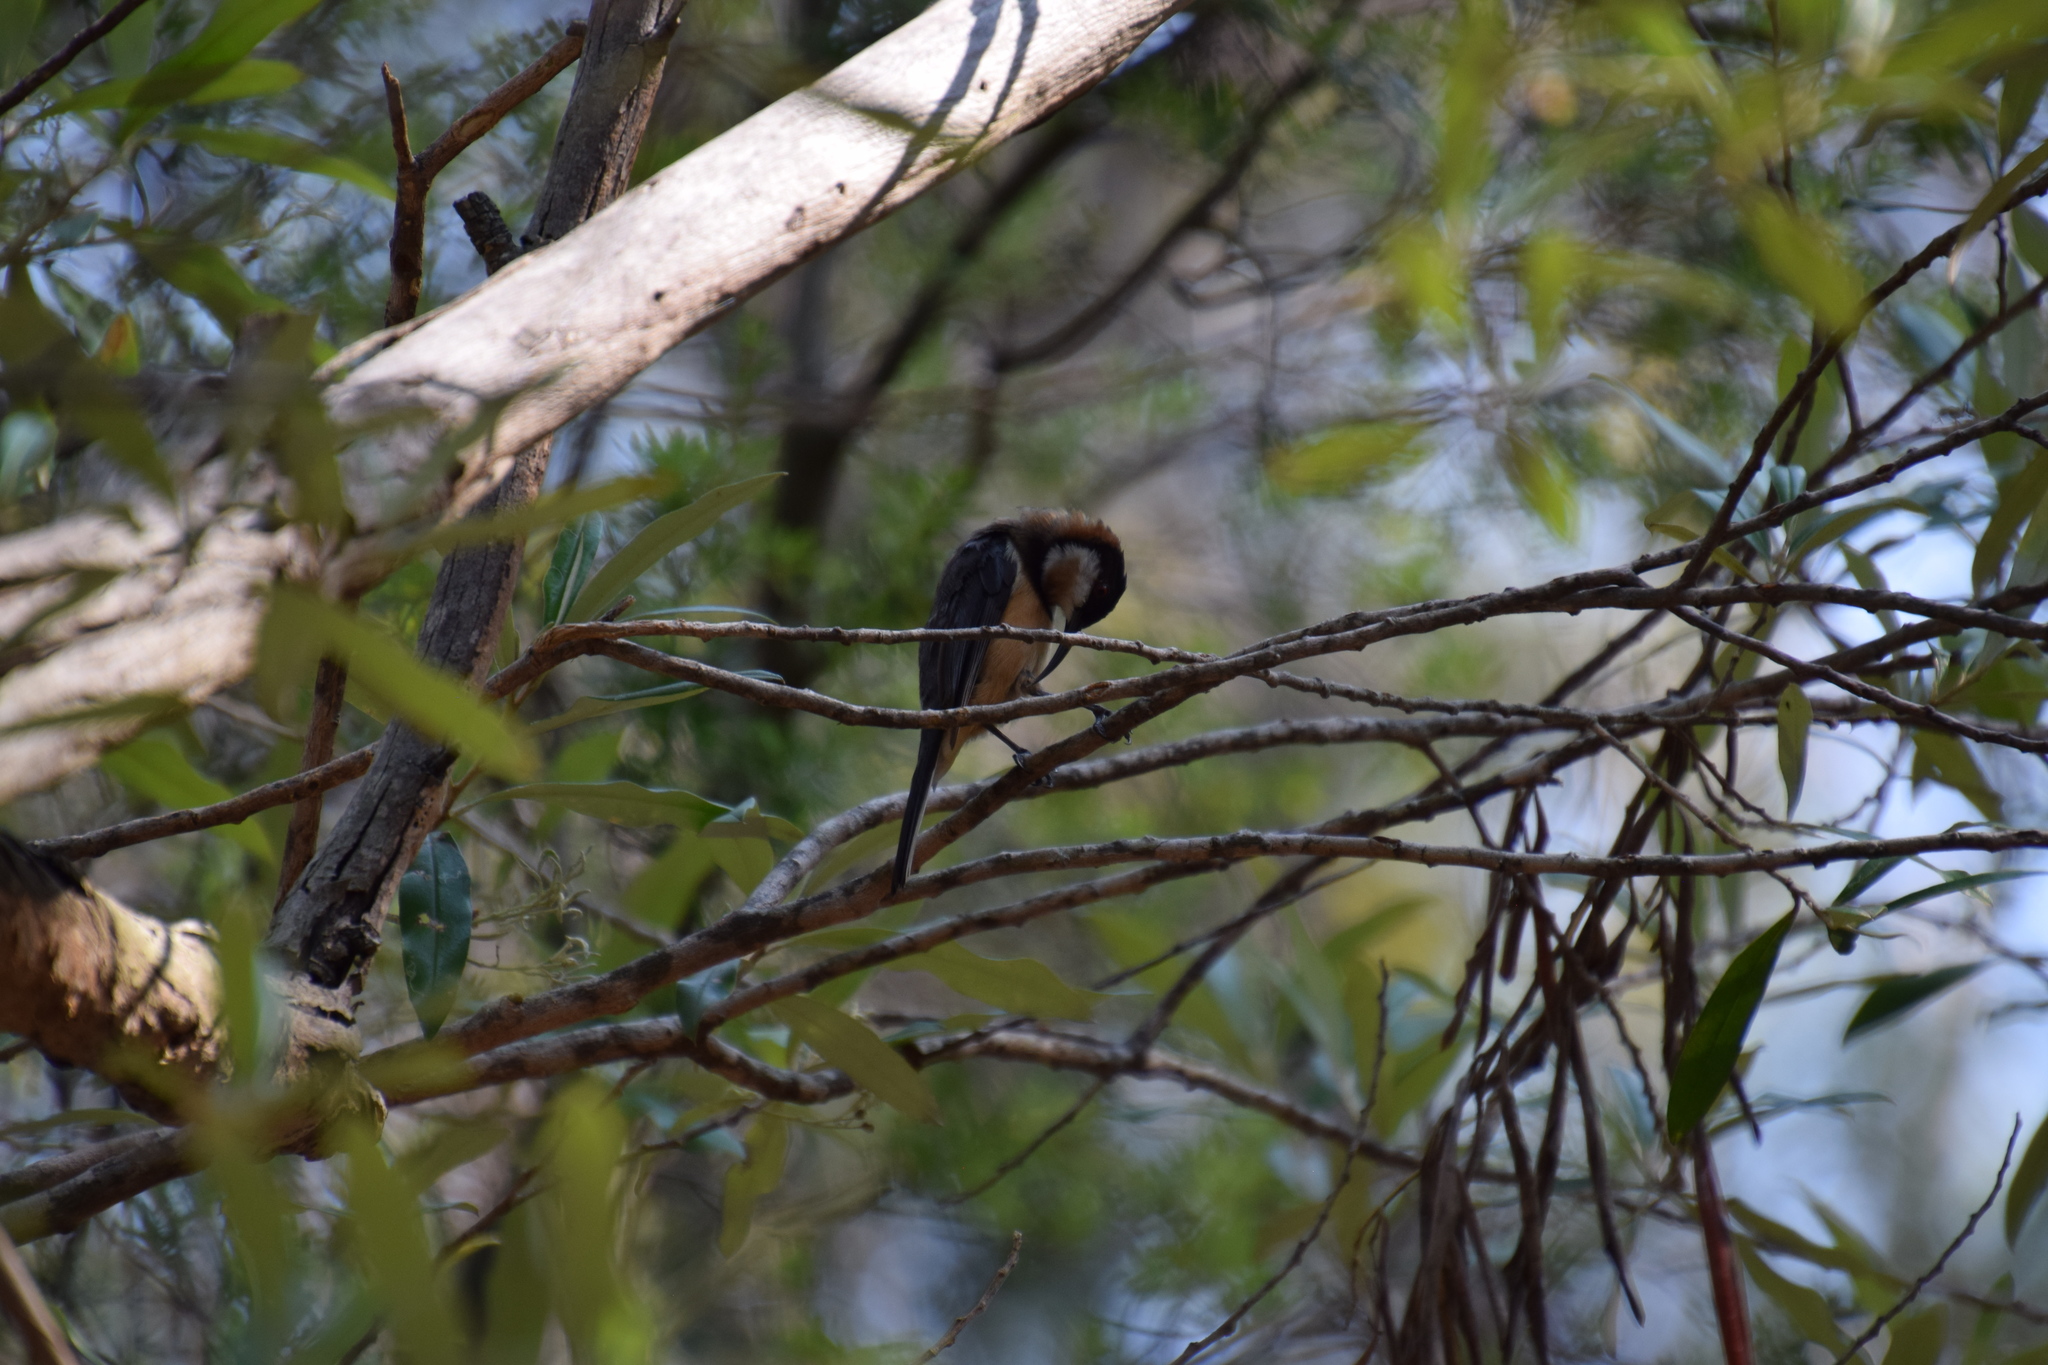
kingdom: Animalia
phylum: Chordata
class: Aves
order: Passeriformes
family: Meliphagidae
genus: Acanthorhynchus
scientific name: Acanthorhynchus tenuirostris
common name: Eastern spinebill
